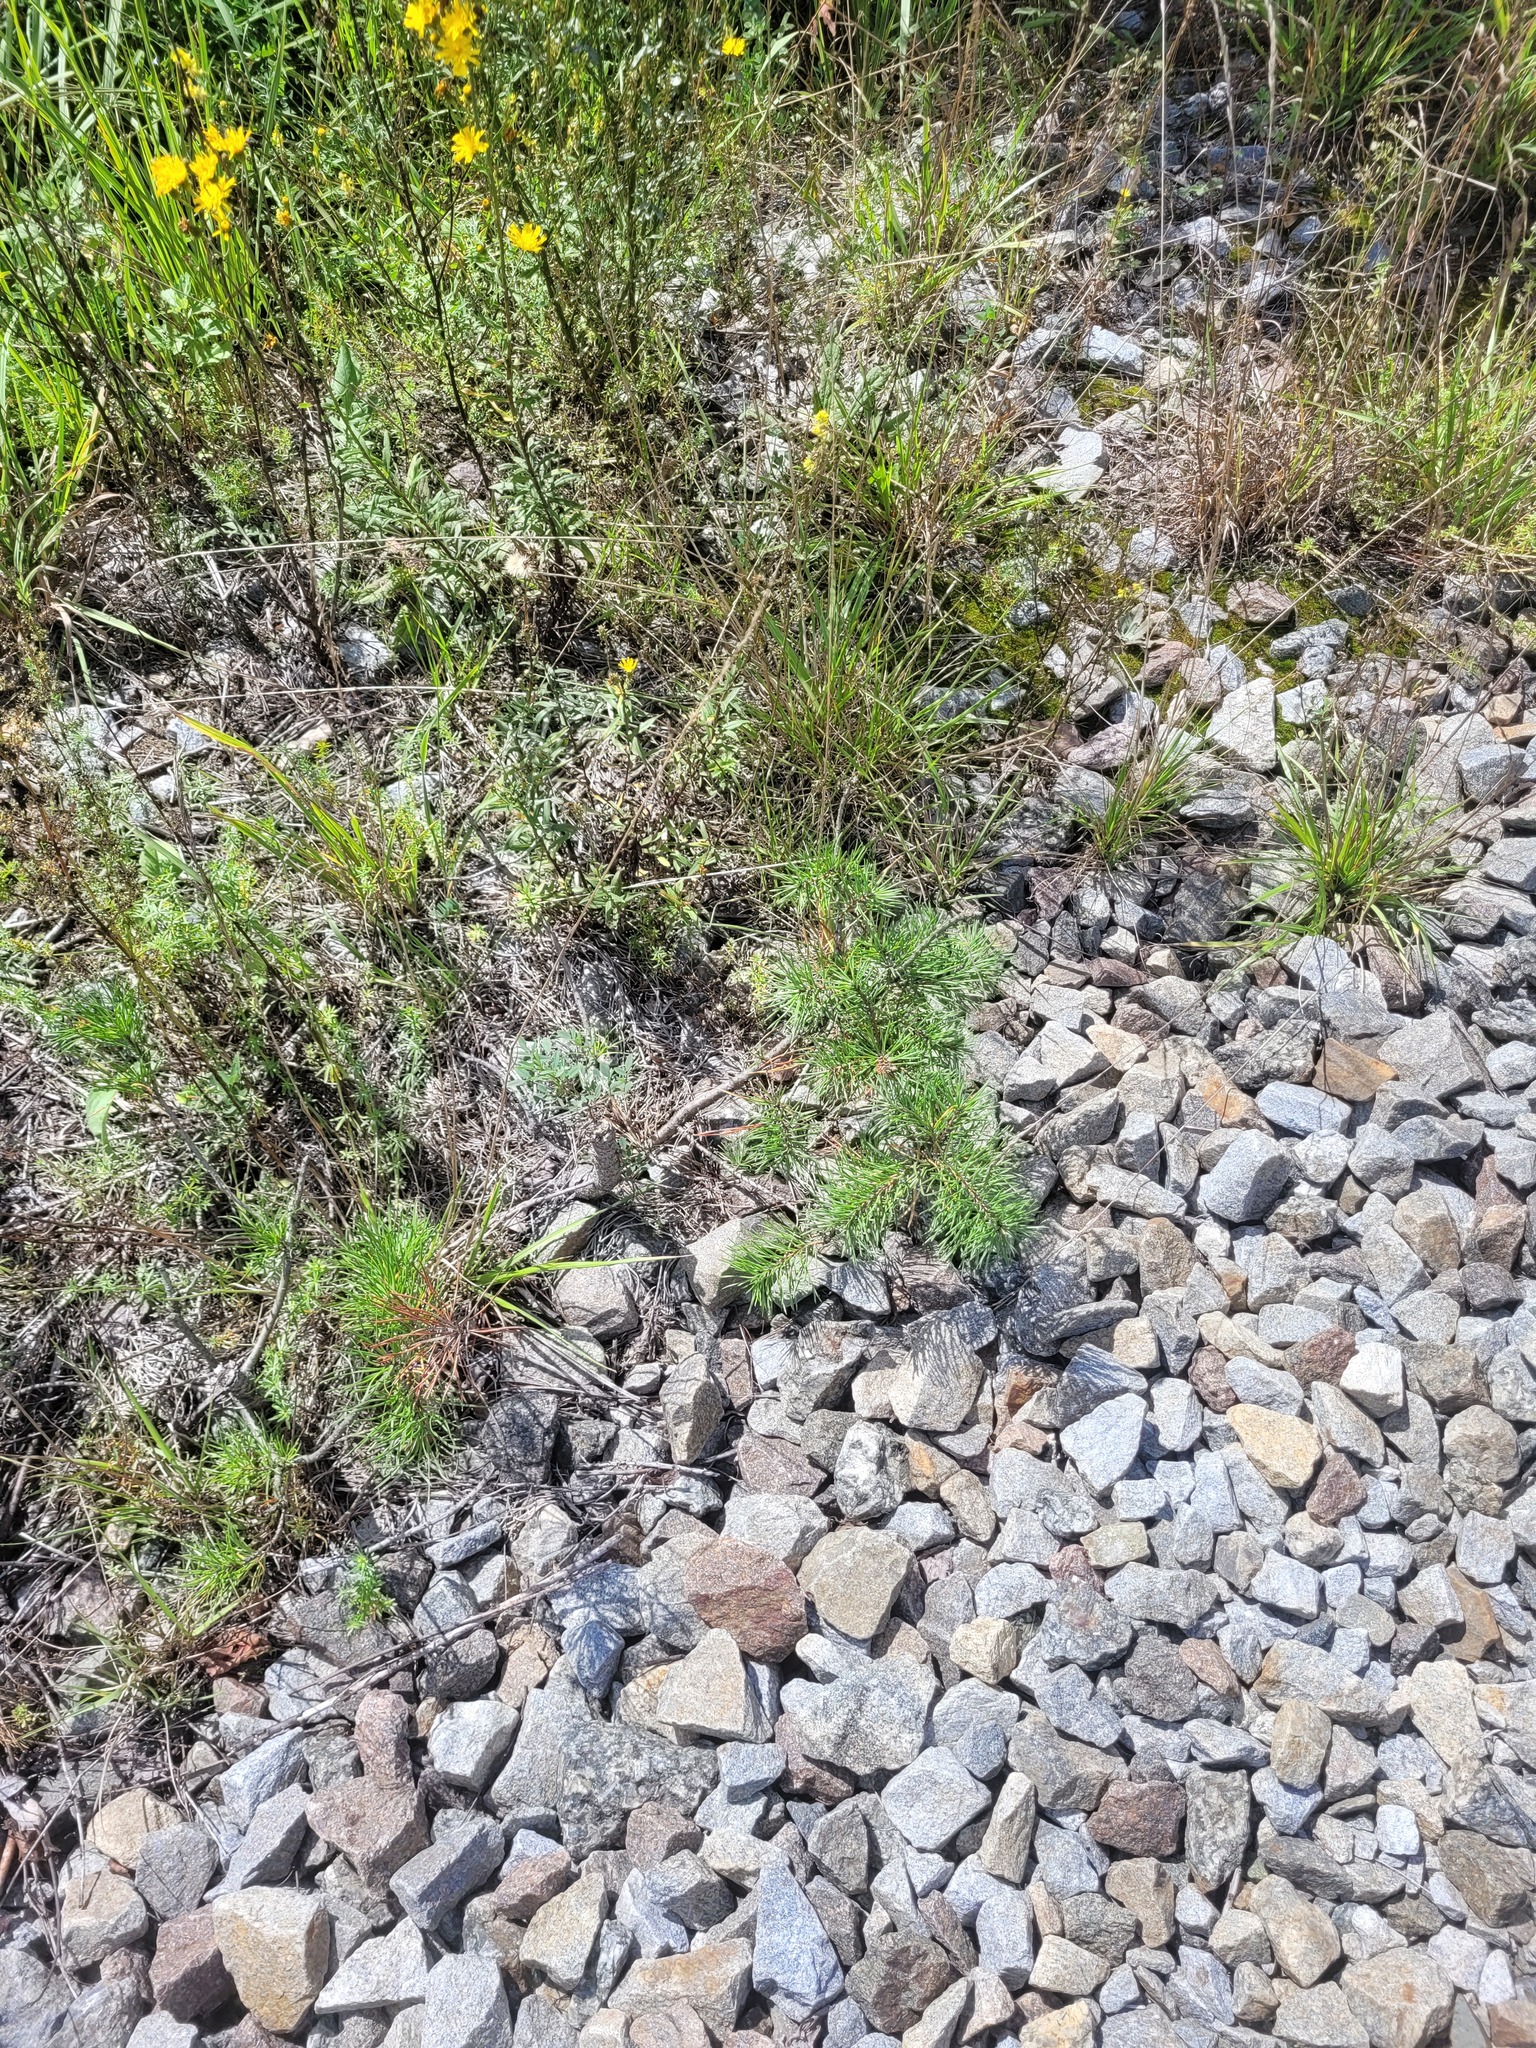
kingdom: Plantae
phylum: Tracheophyta
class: Pinopsida
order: Pinales
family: Pinaceae
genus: Pinus
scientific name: Pinus sylvestris
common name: Scots pine
